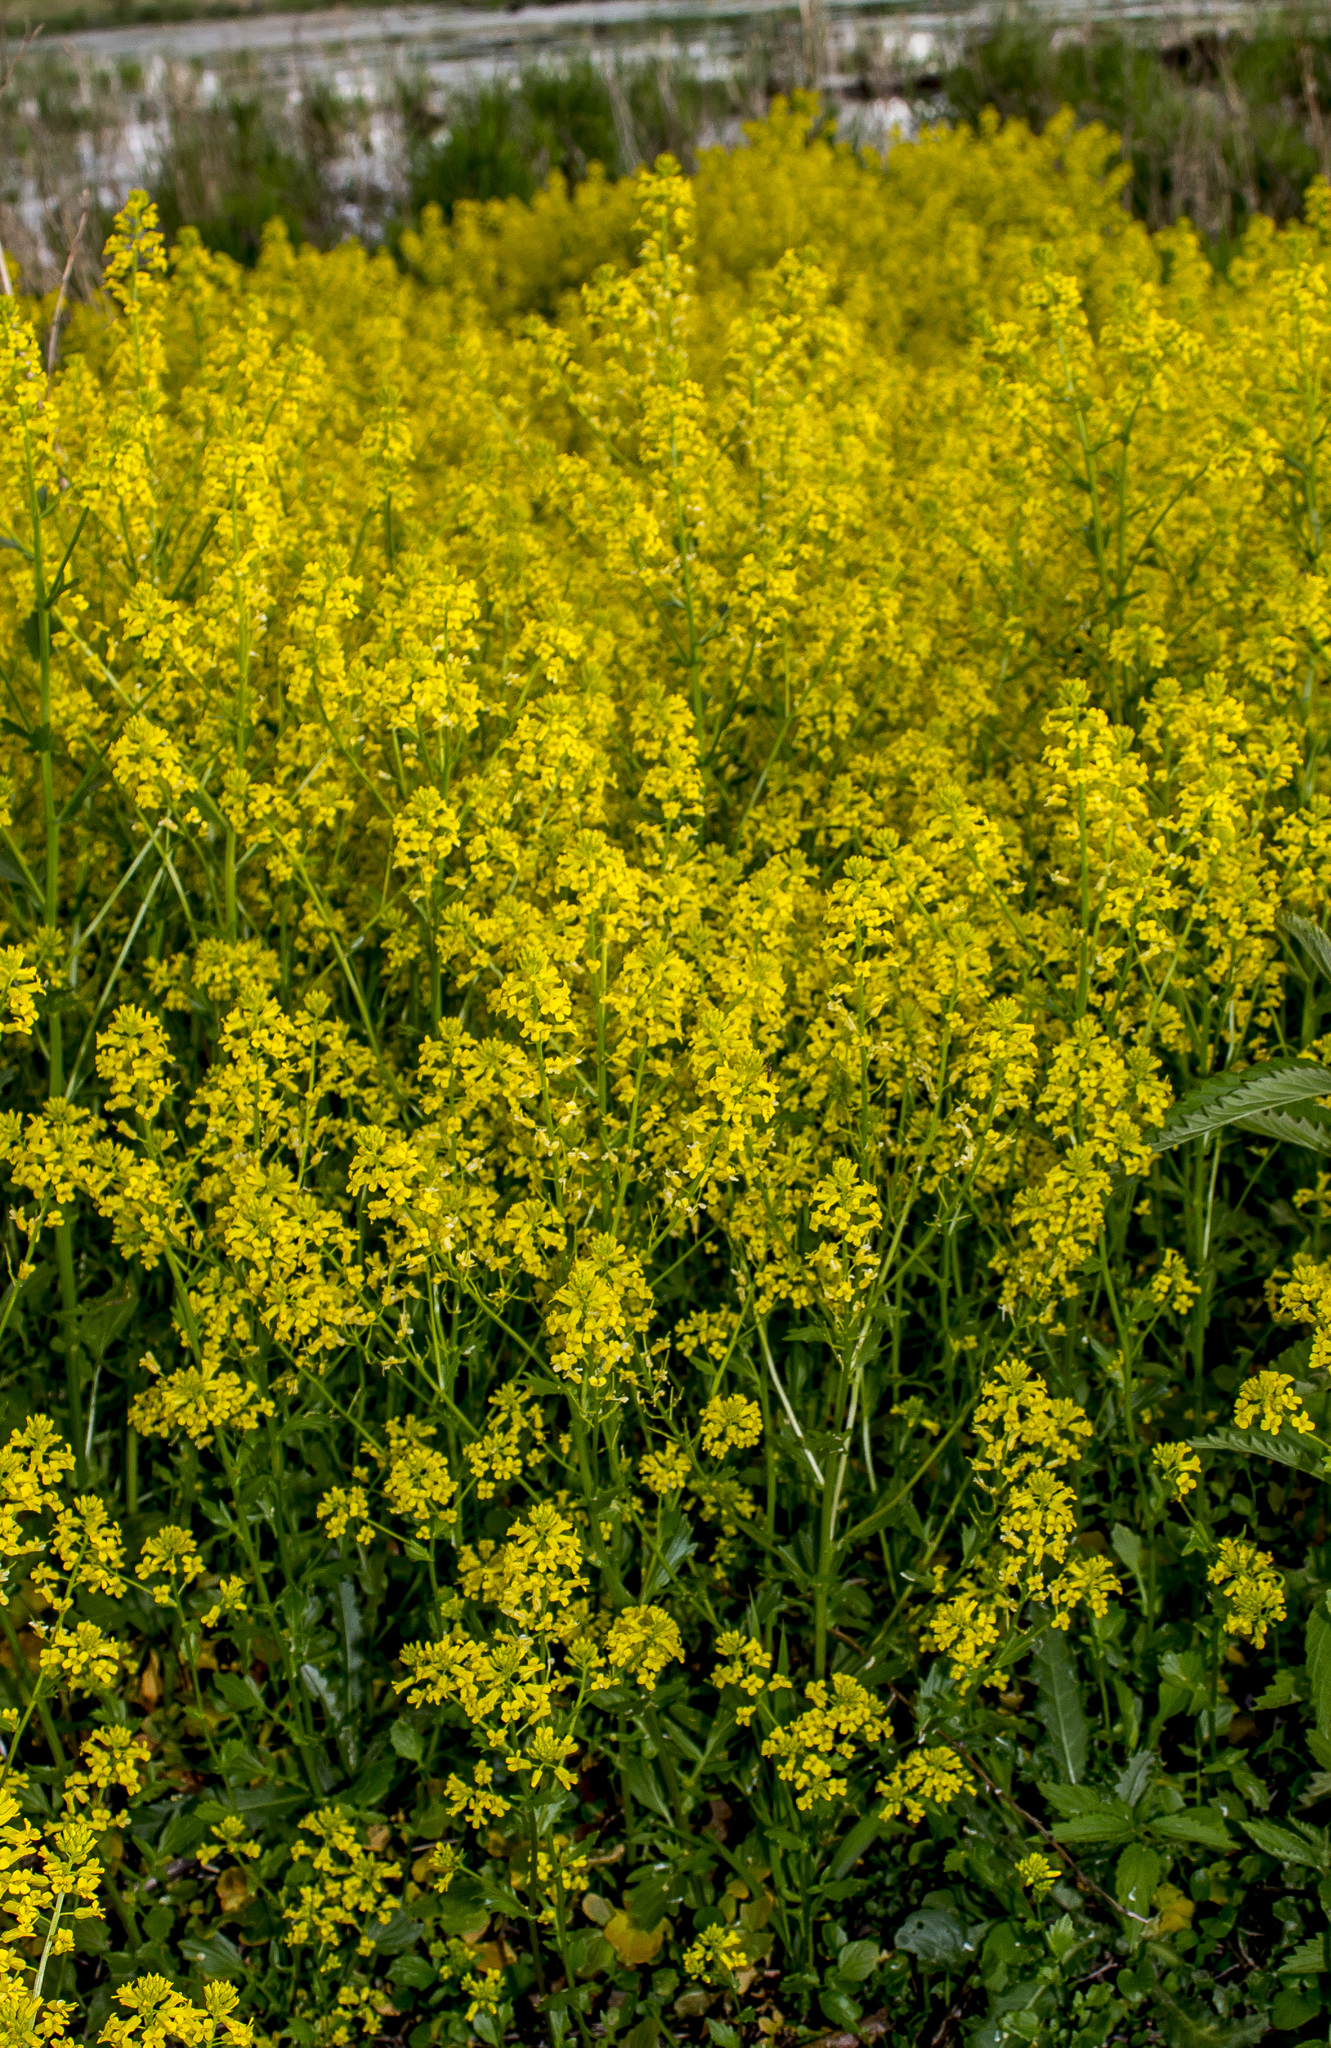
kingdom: Plantae
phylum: Tracheophyta
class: Magnoliopsida
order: Brassicales
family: Brassicaceae
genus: Barbarea
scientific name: Barbarea vulgaris
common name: Cressy-greens
